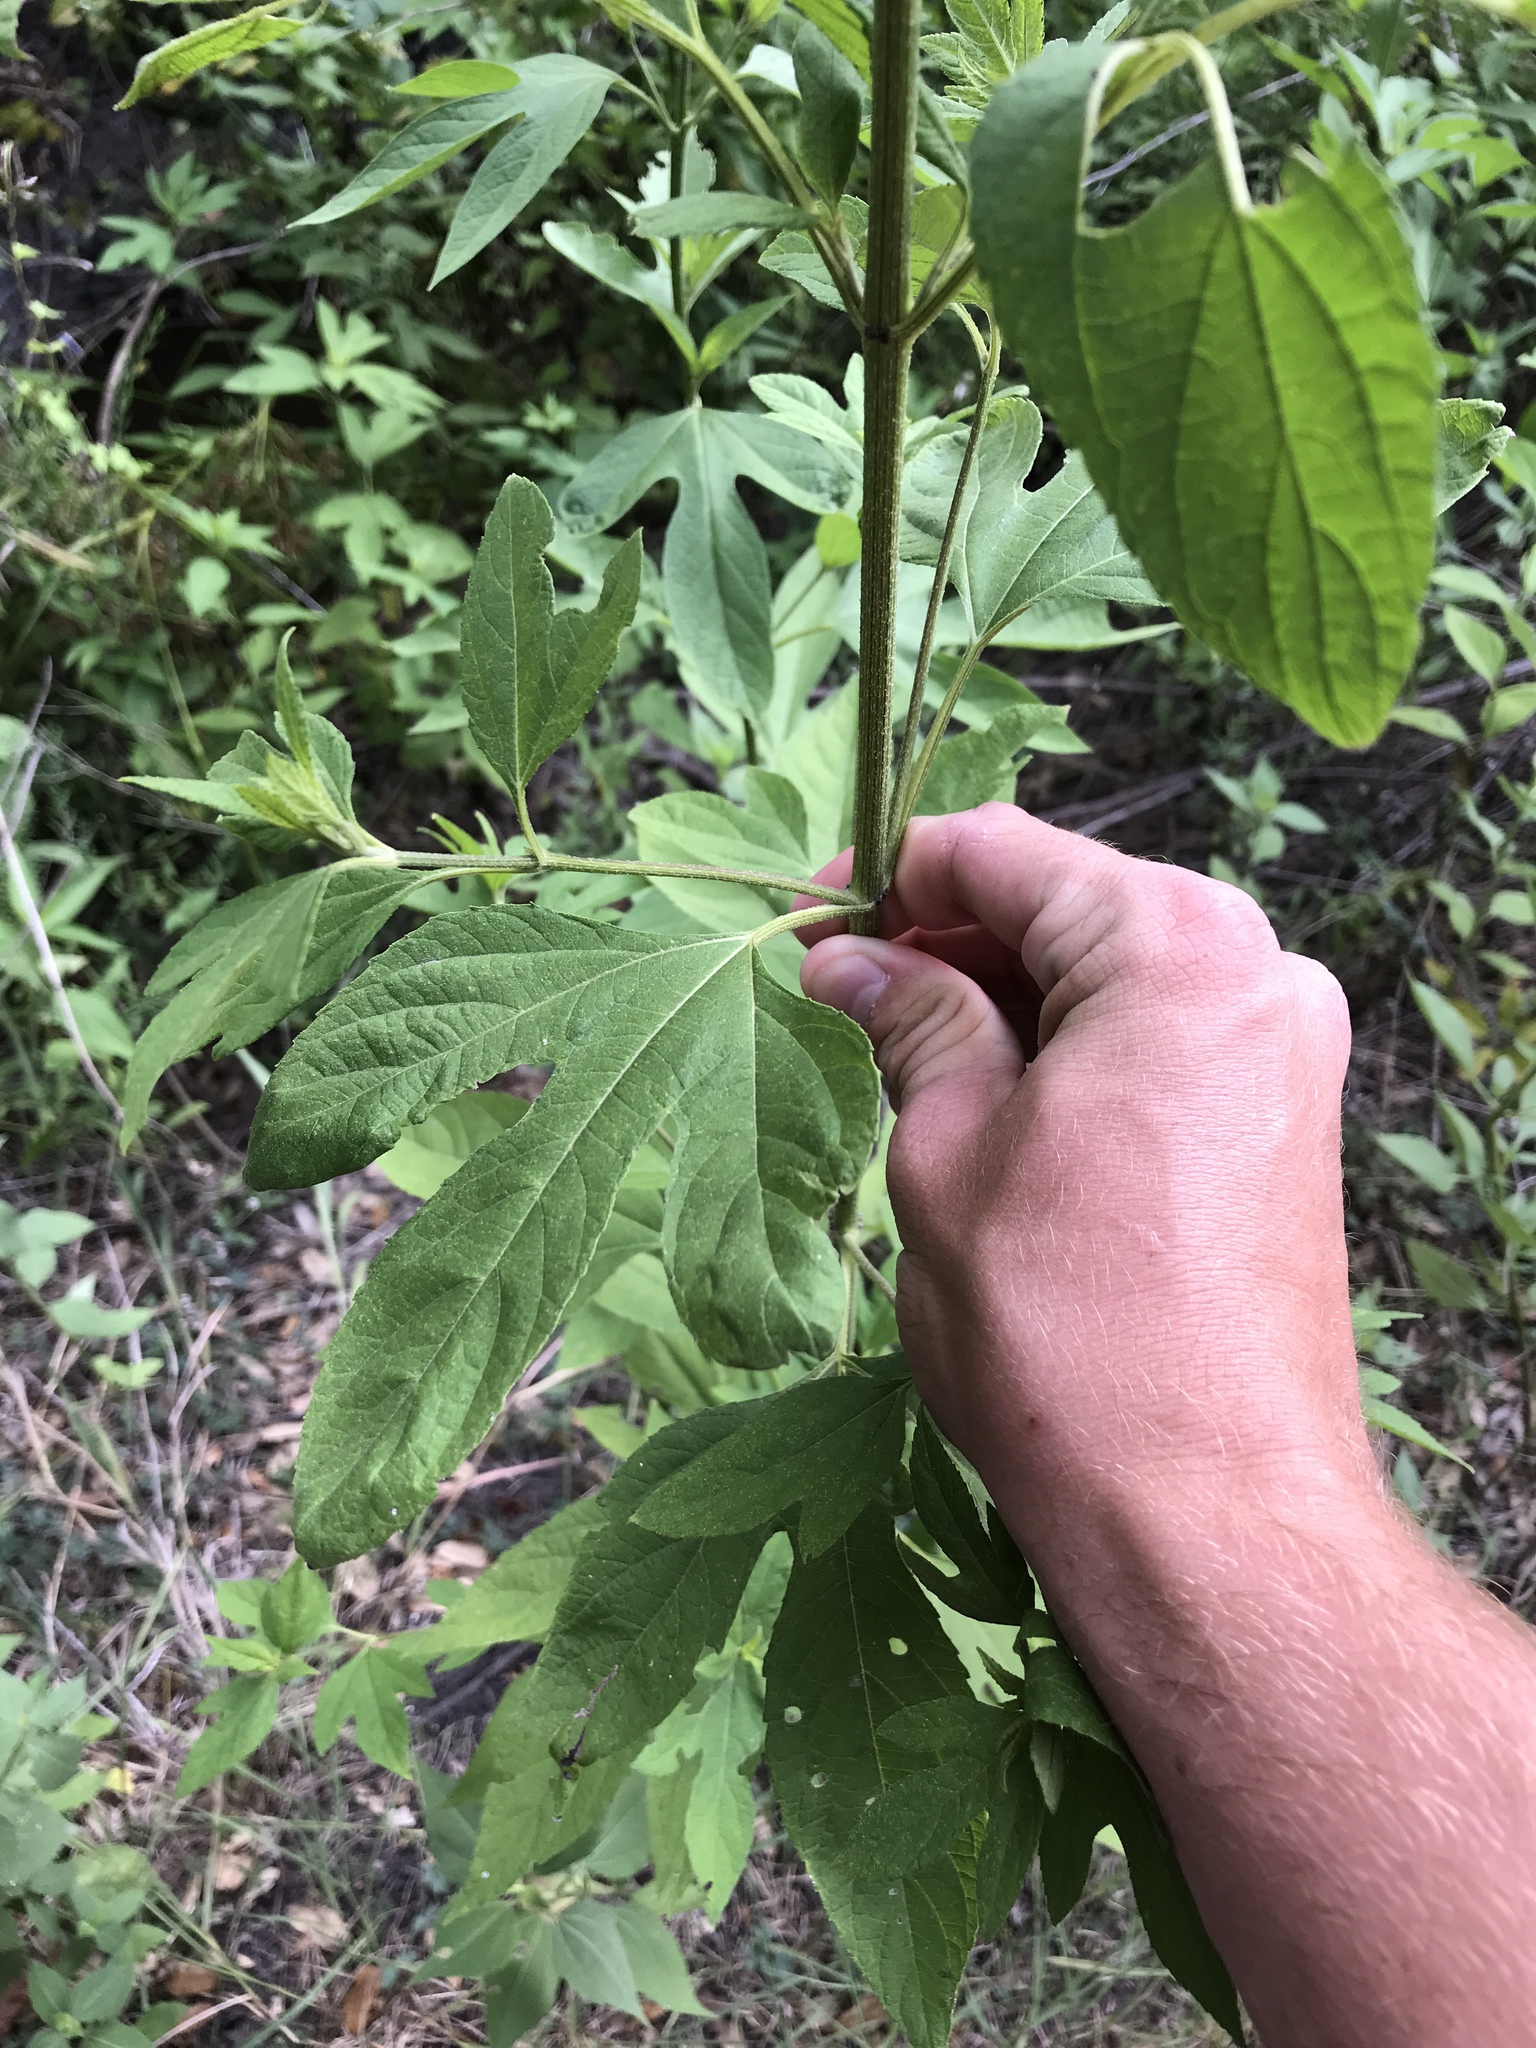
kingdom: Plantae
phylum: Tracheophyta
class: Magnoliopsida
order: Asterales
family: Asteraceae
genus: Ambrosia
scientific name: Ambrosia trifida
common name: Giant ragweed
